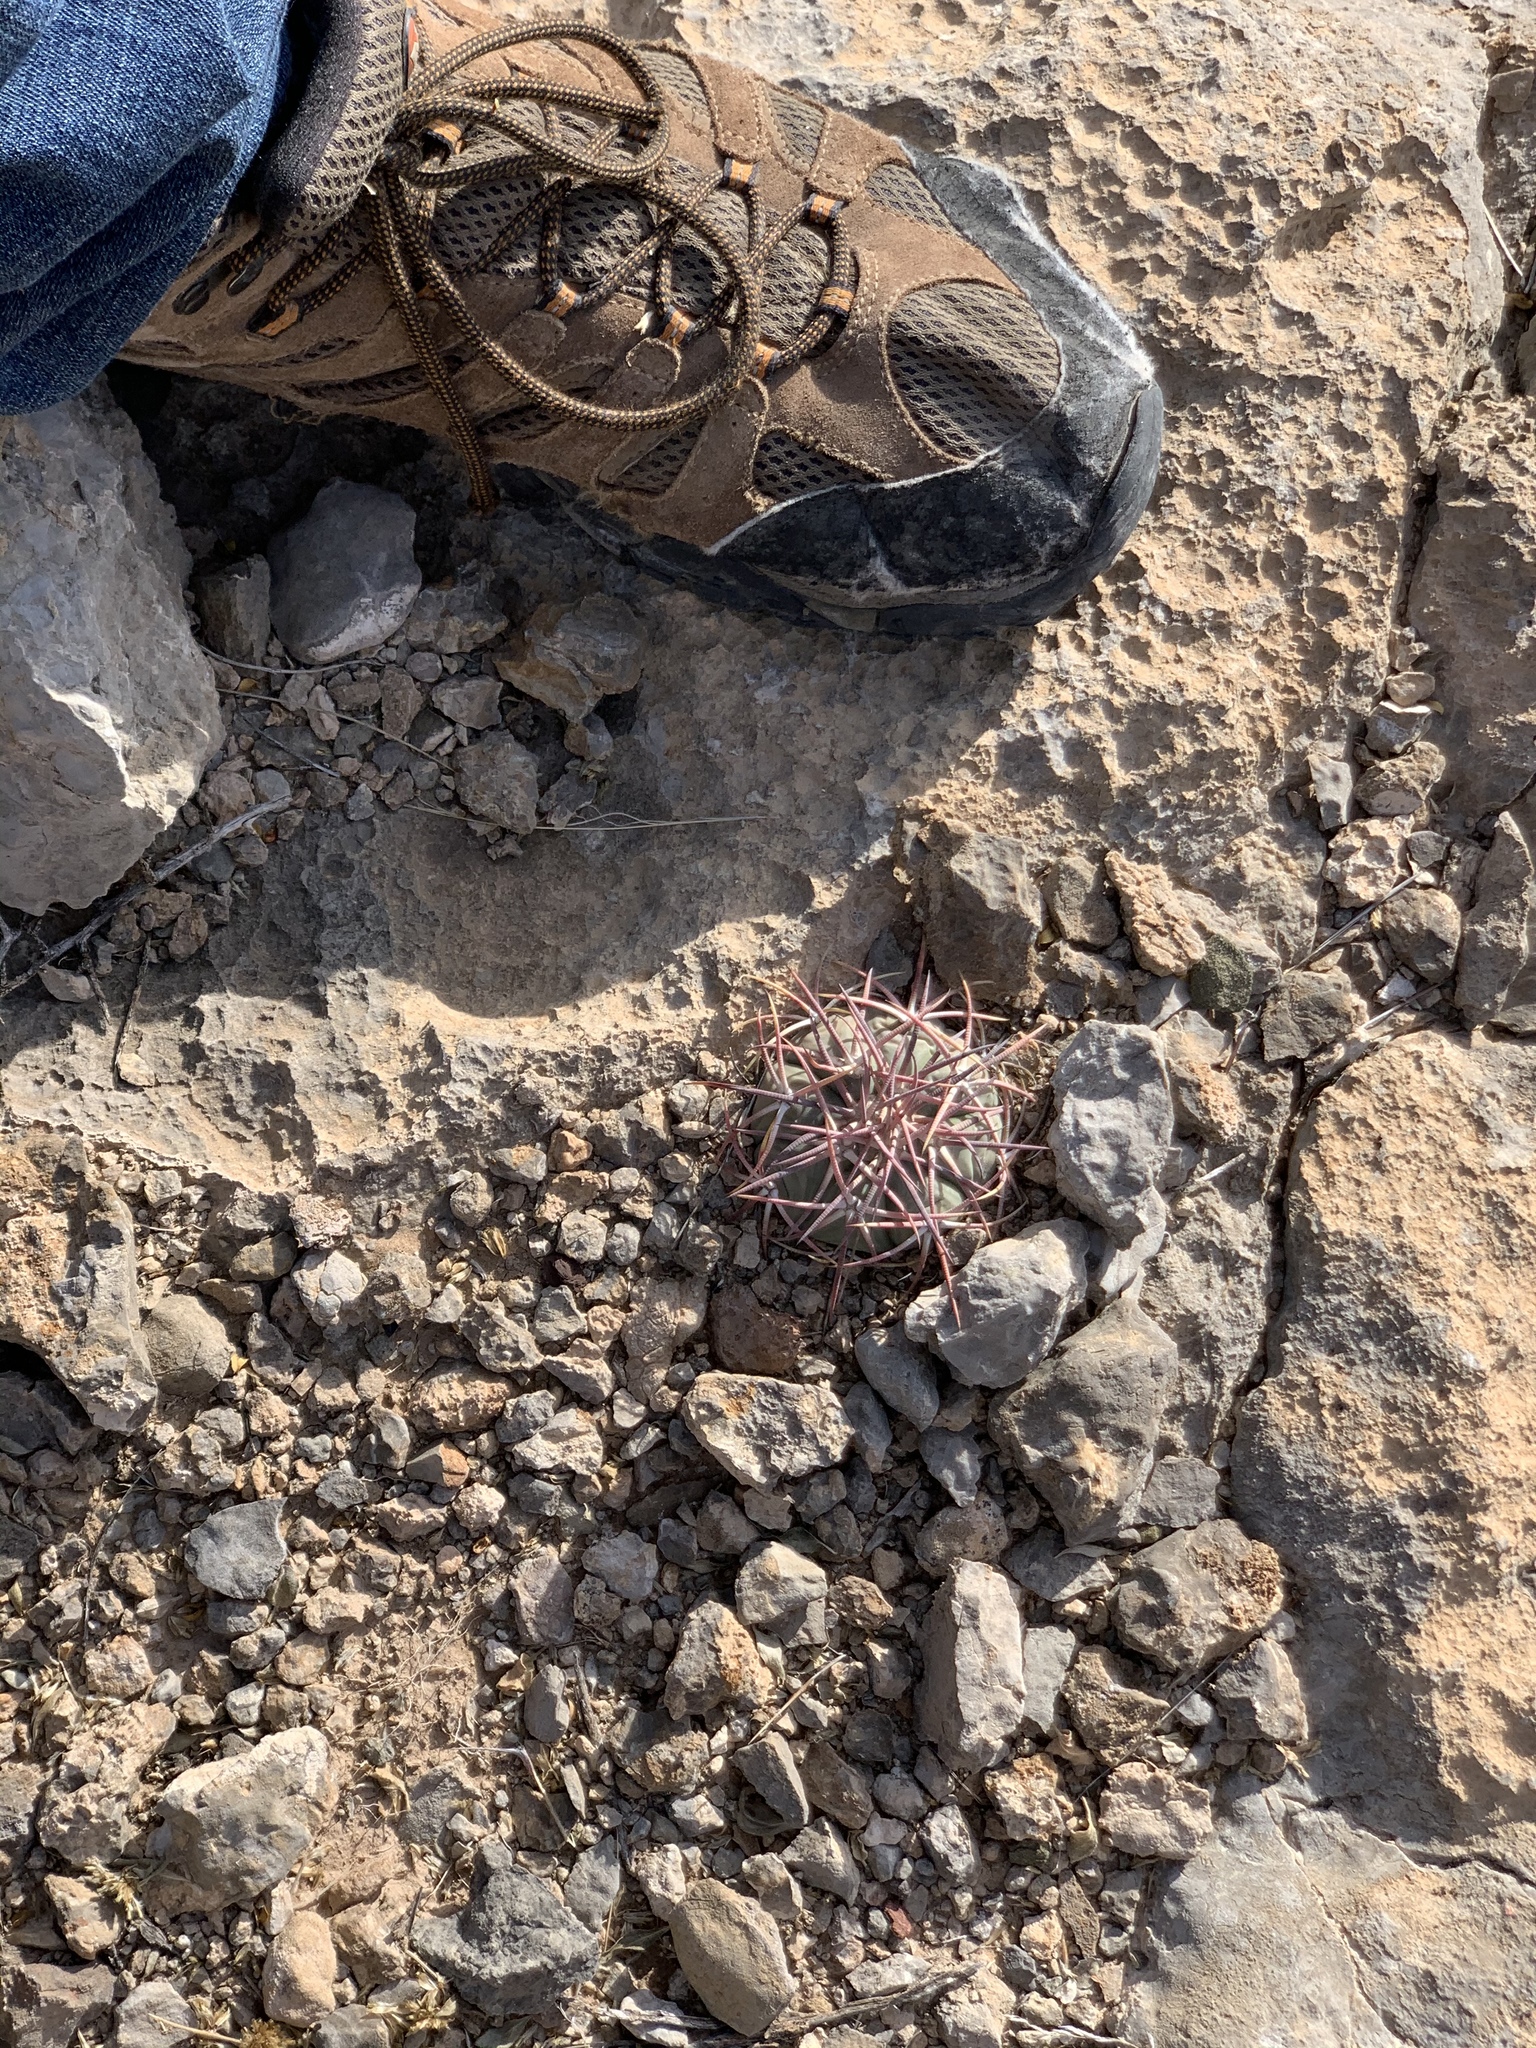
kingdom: Plantae
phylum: Tracheophyta
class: Magnoliopsida
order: Caryophyllales
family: Cactaceae
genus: Echinocactus
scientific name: Echinocactus horizonthalonius
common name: Devilshead
